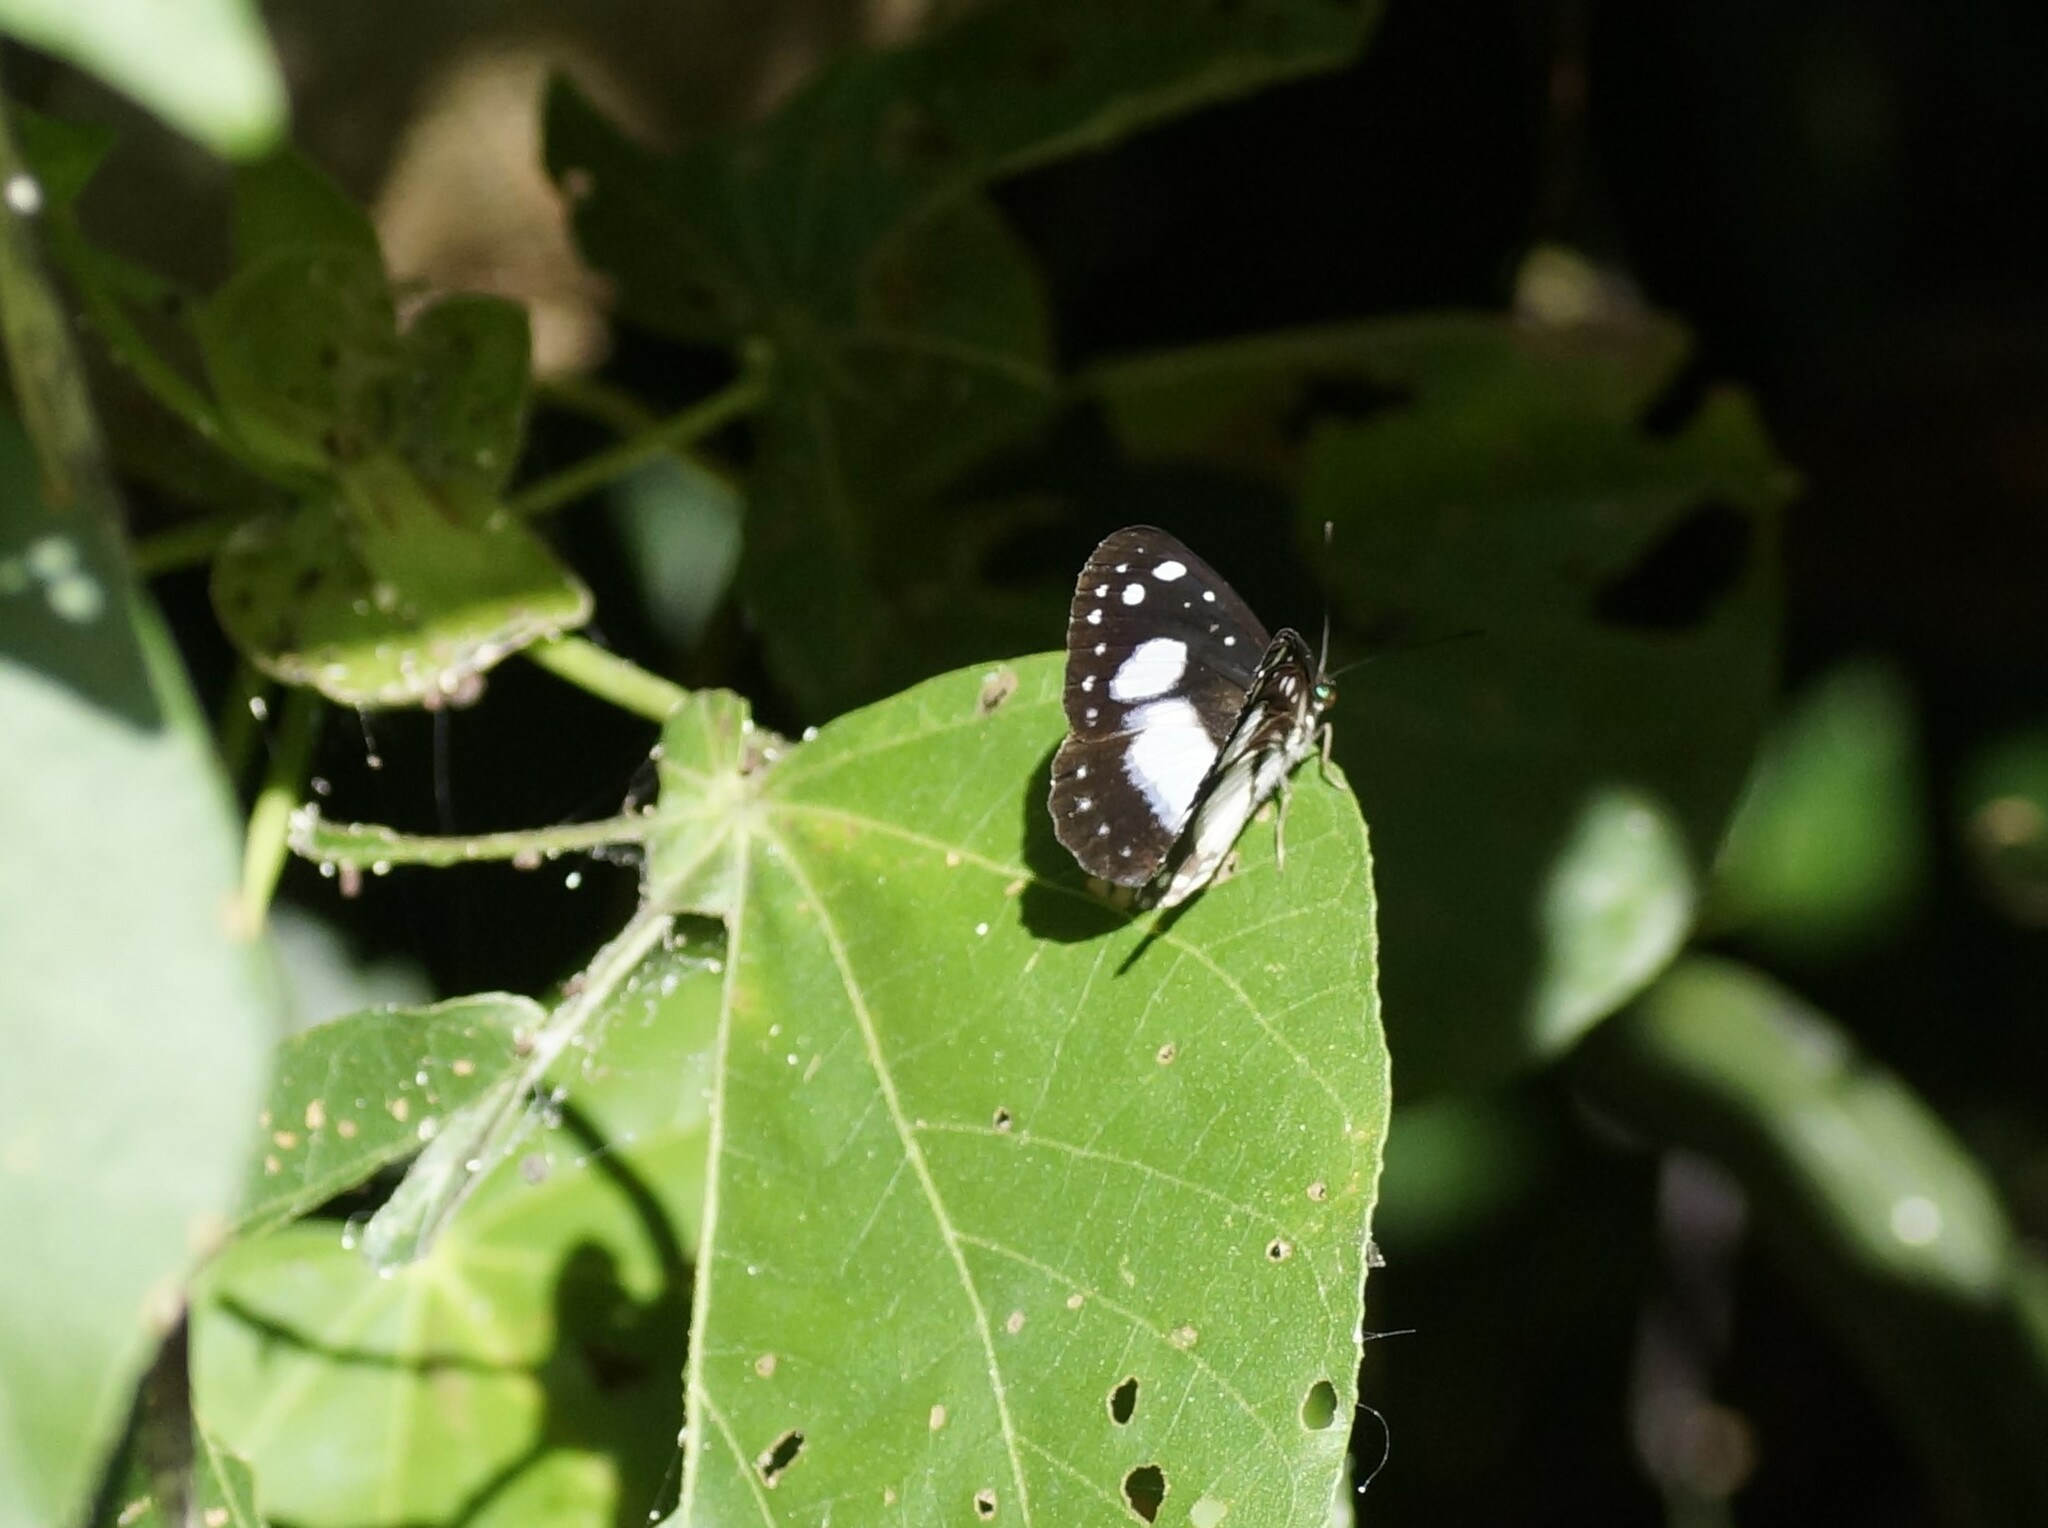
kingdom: Animalia
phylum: Arthropoda
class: Insecta
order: Lepidoptera
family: Nymphalidae
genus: Pantoporia
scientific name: Pantoporia venilia
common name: Cape york aeroplane
